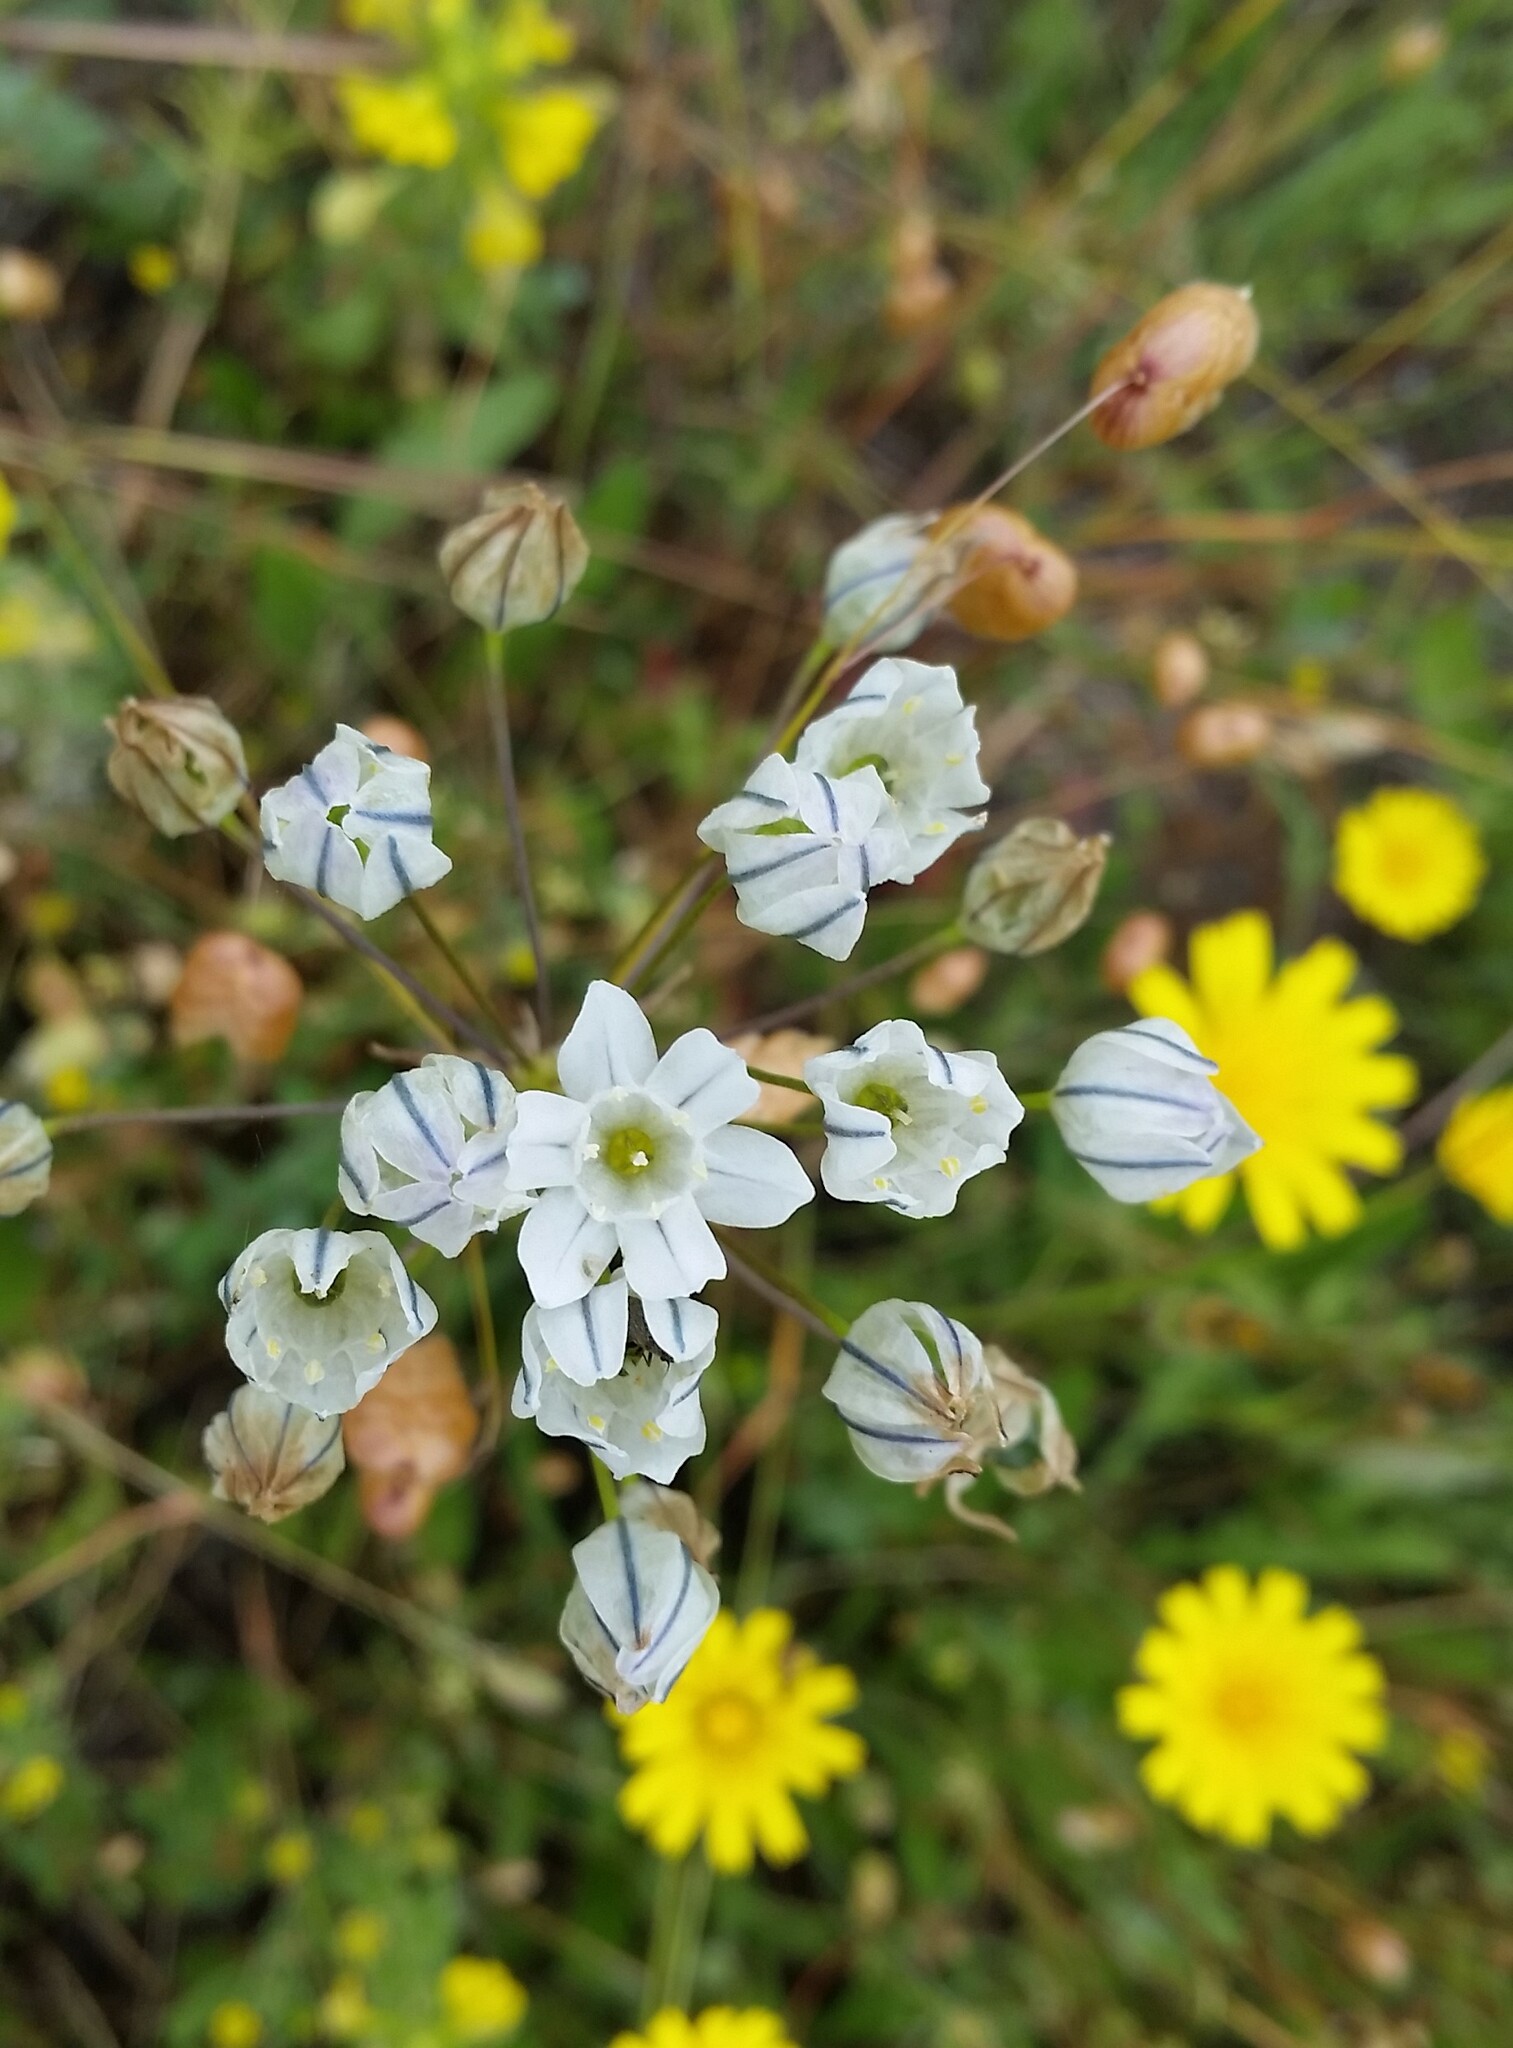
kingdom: Plantae
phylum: Tracheophyta
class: Liliopsida
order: Asparagales
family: Asparagaceae
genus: Triteleia
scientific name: Triteleia hyacinthina
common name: White brodiaea
